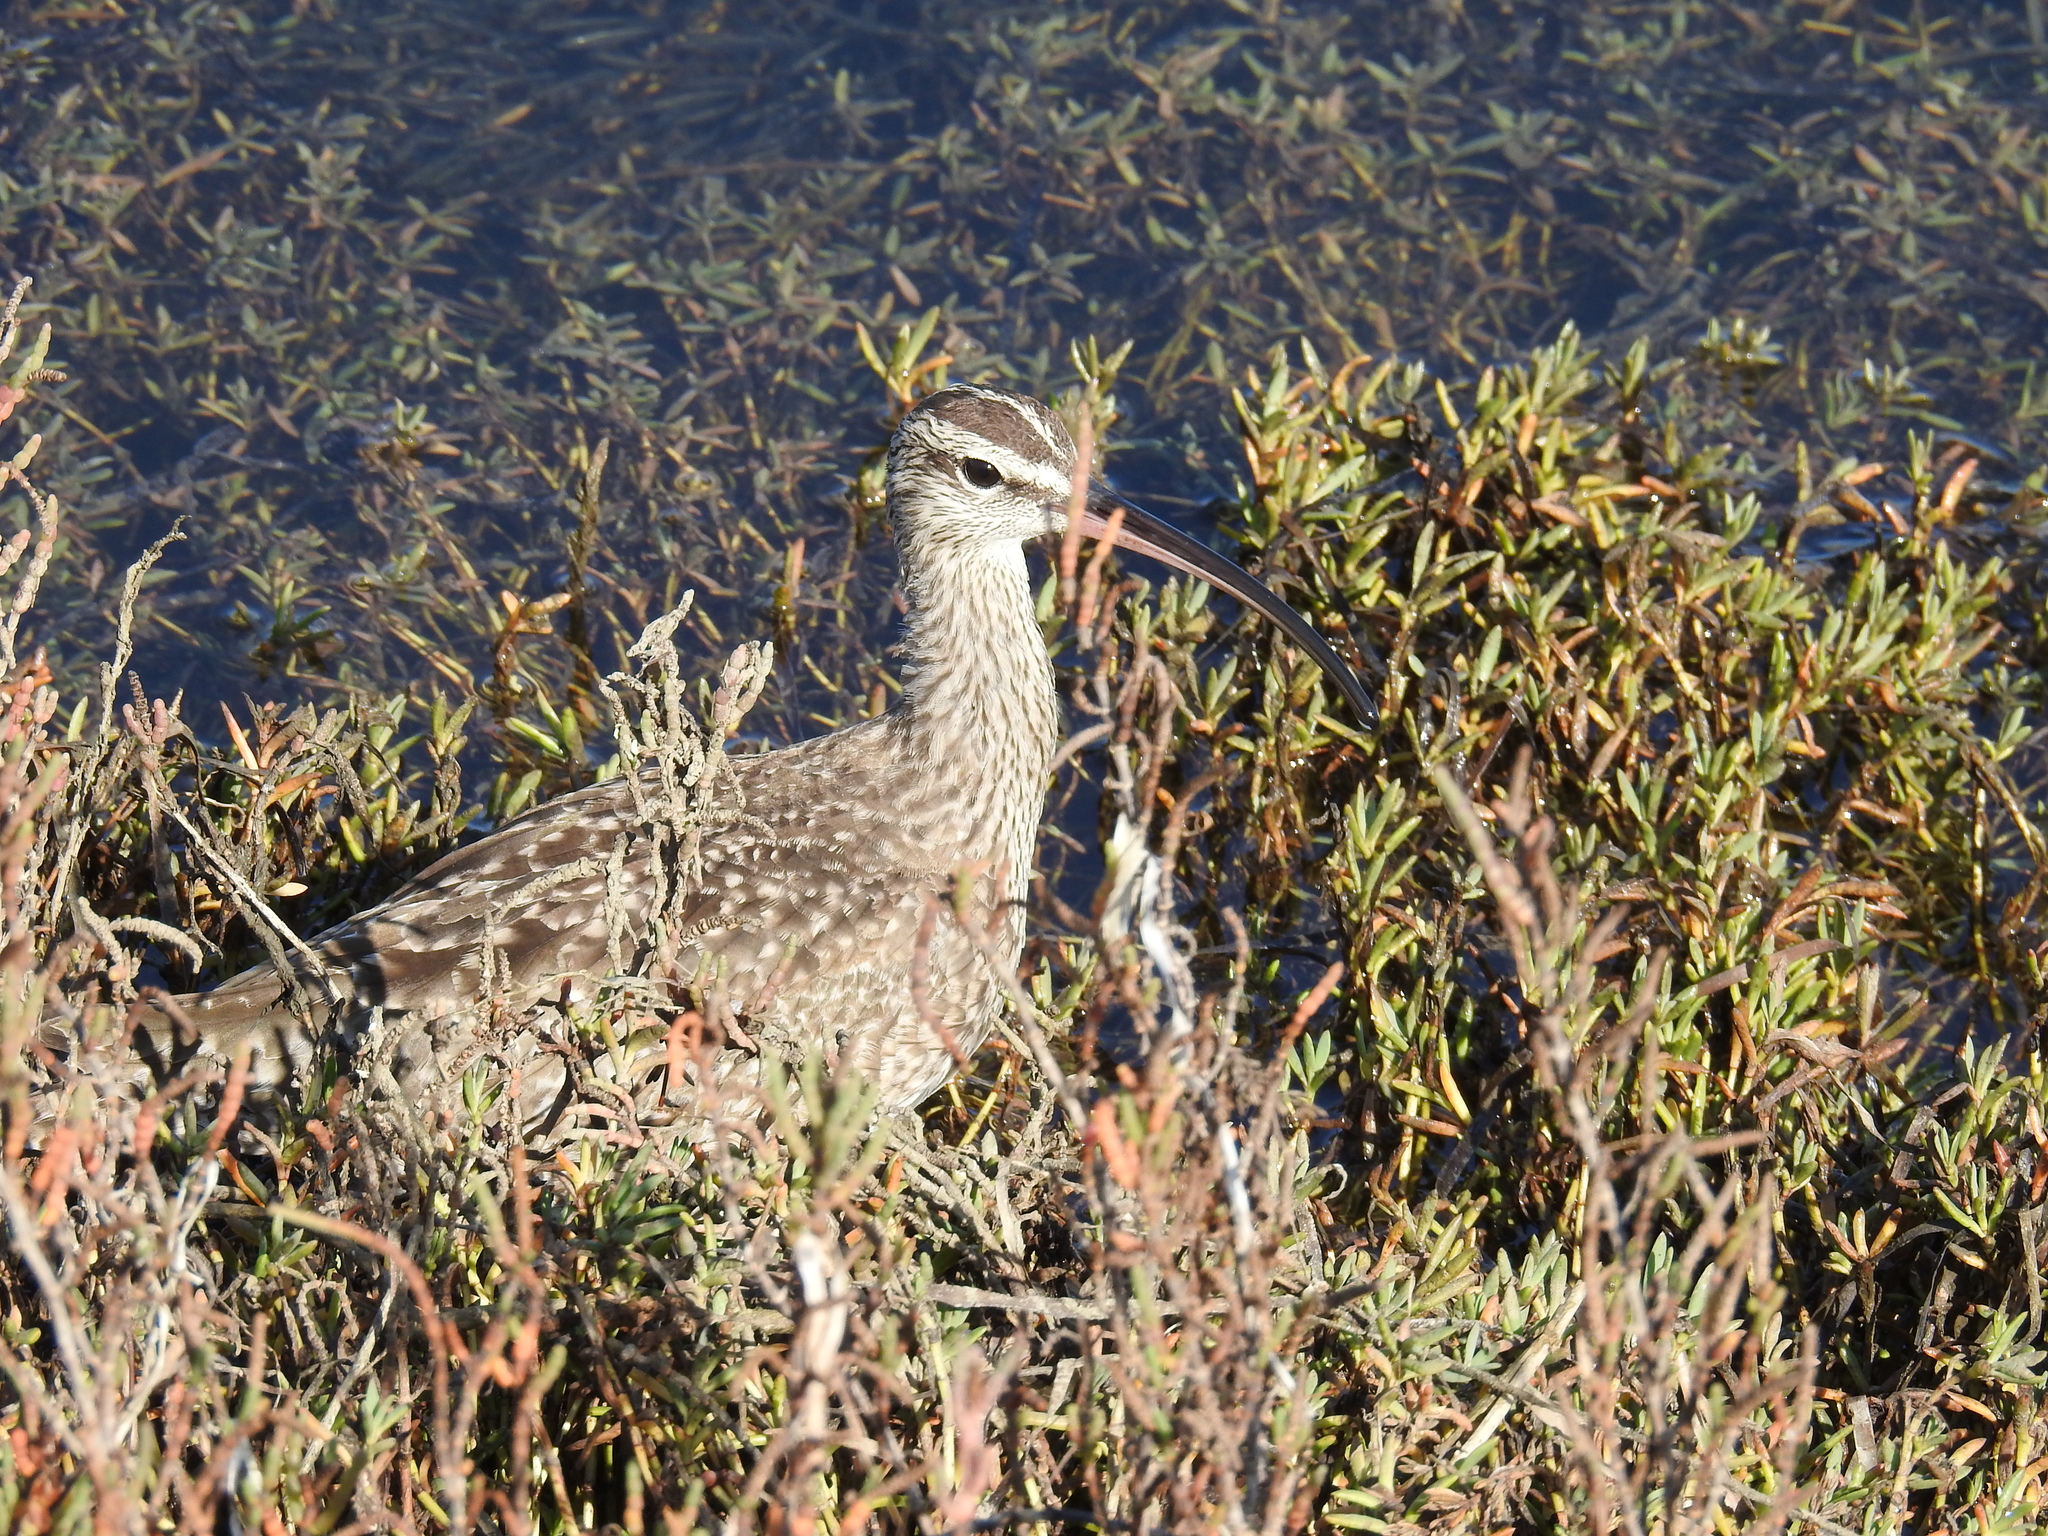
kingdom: Animalia
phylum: Chordata
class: Aves
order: Charadriiformes
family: Scolopacidae
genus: Numenius
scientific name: Numenius phaeopus
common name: Whimbrel
